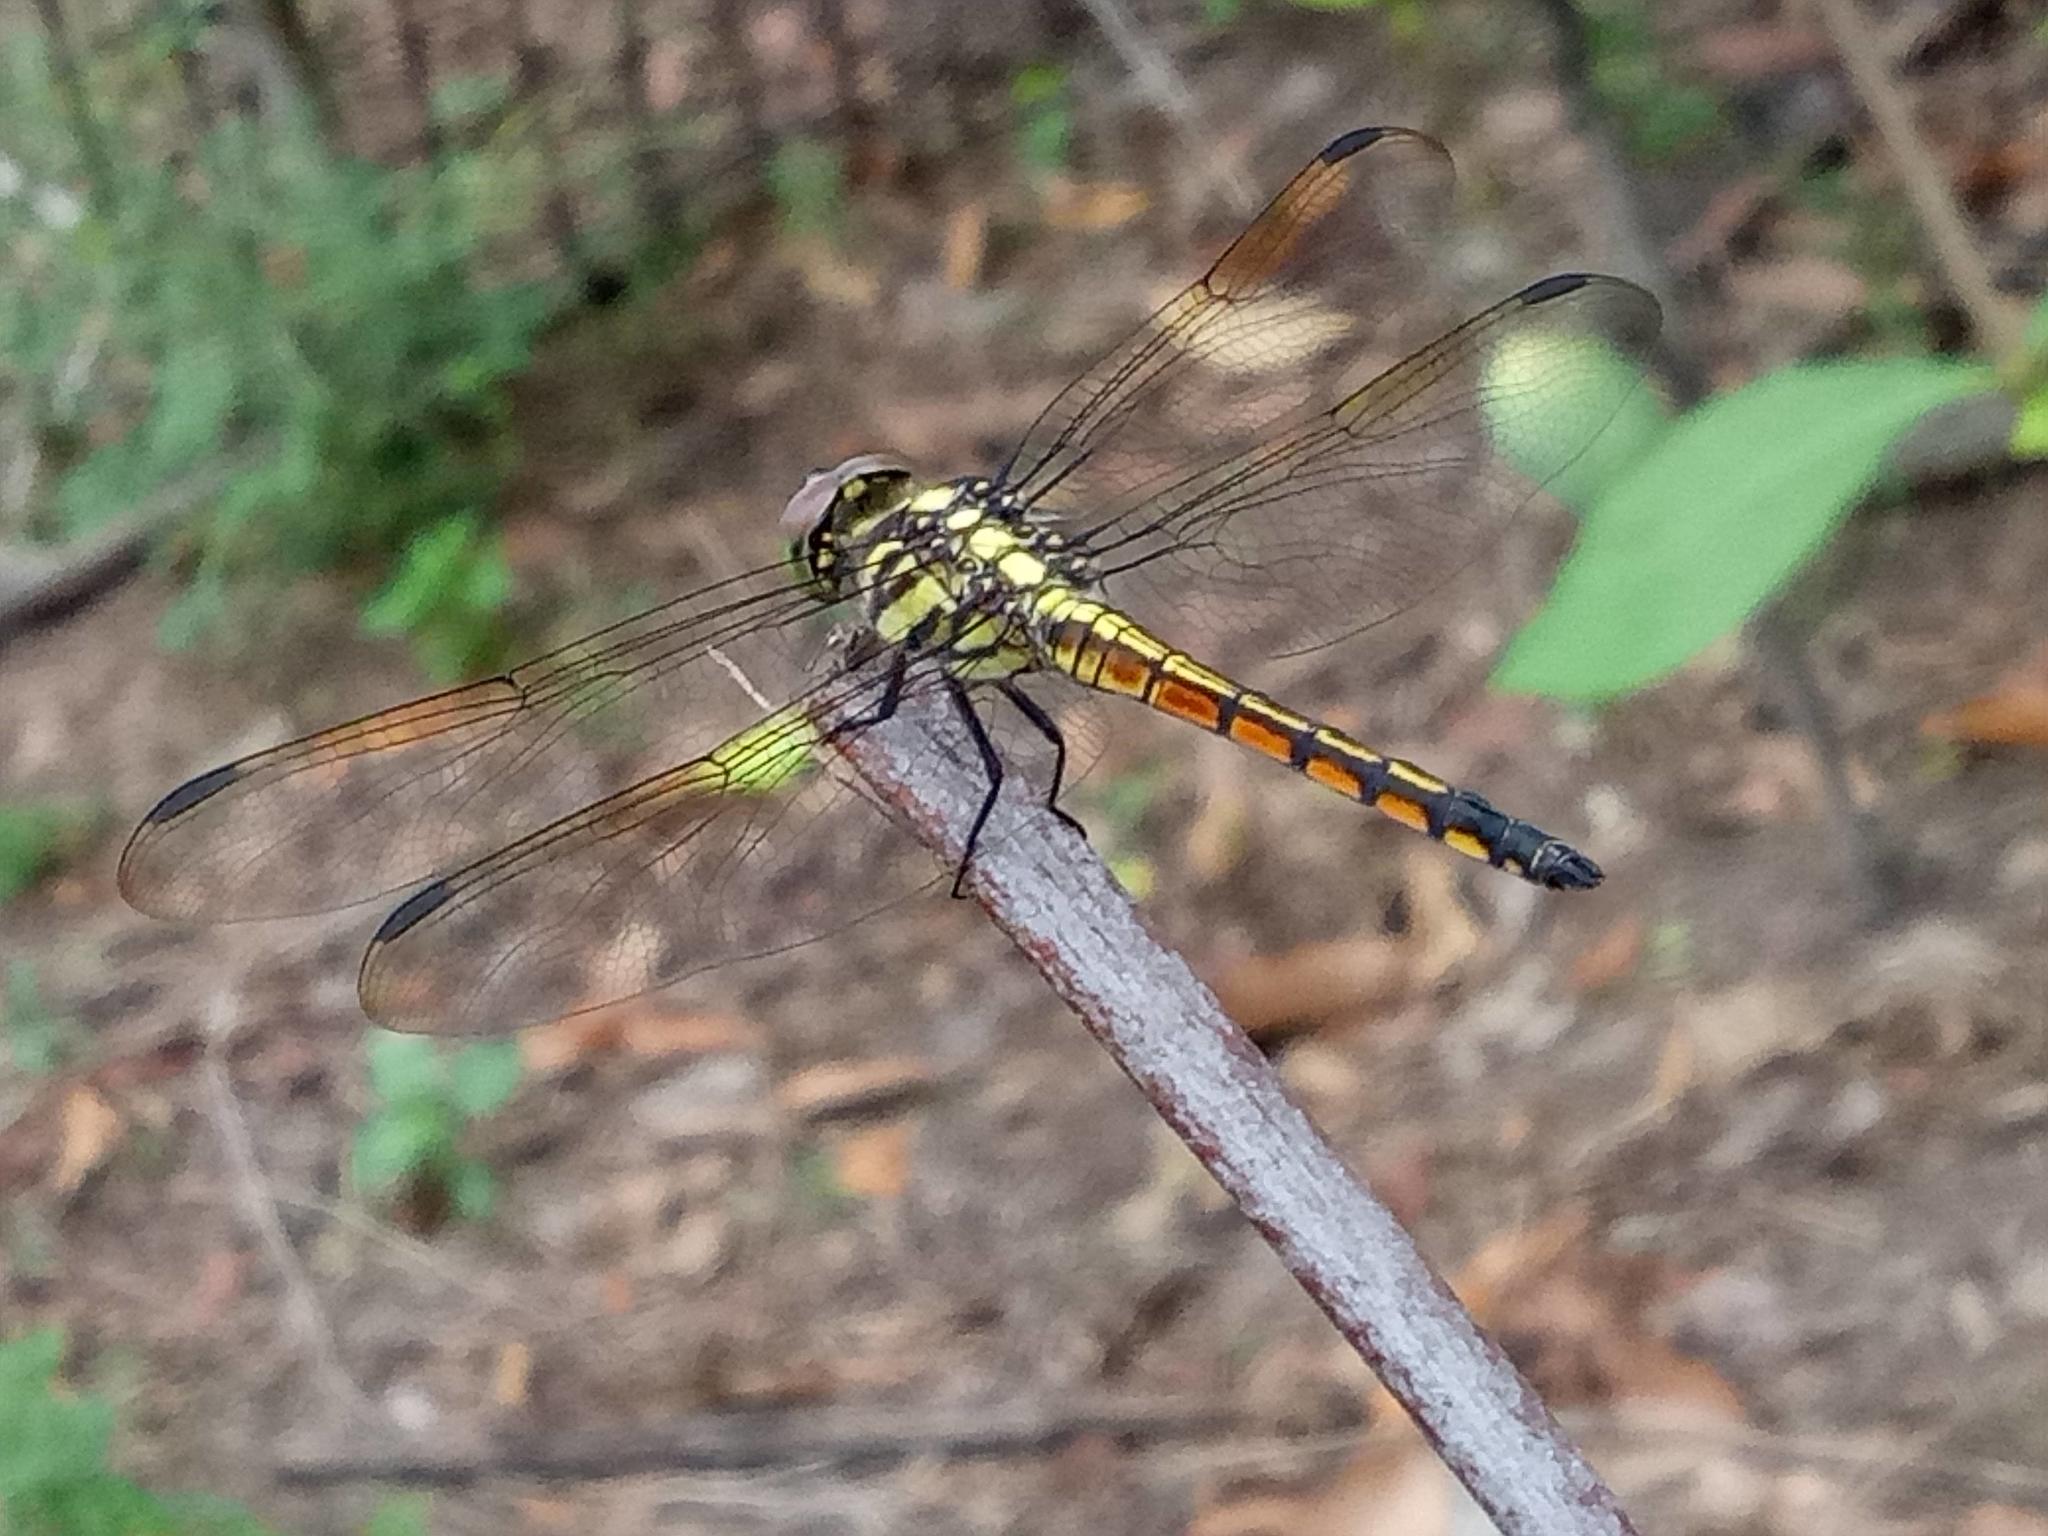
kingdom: Animalia
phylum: Arthropoda
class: Insecta
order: Odonata
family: Libellulidae
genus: Potamarcha
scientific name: Potamarcha congener
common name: Blue chaser
